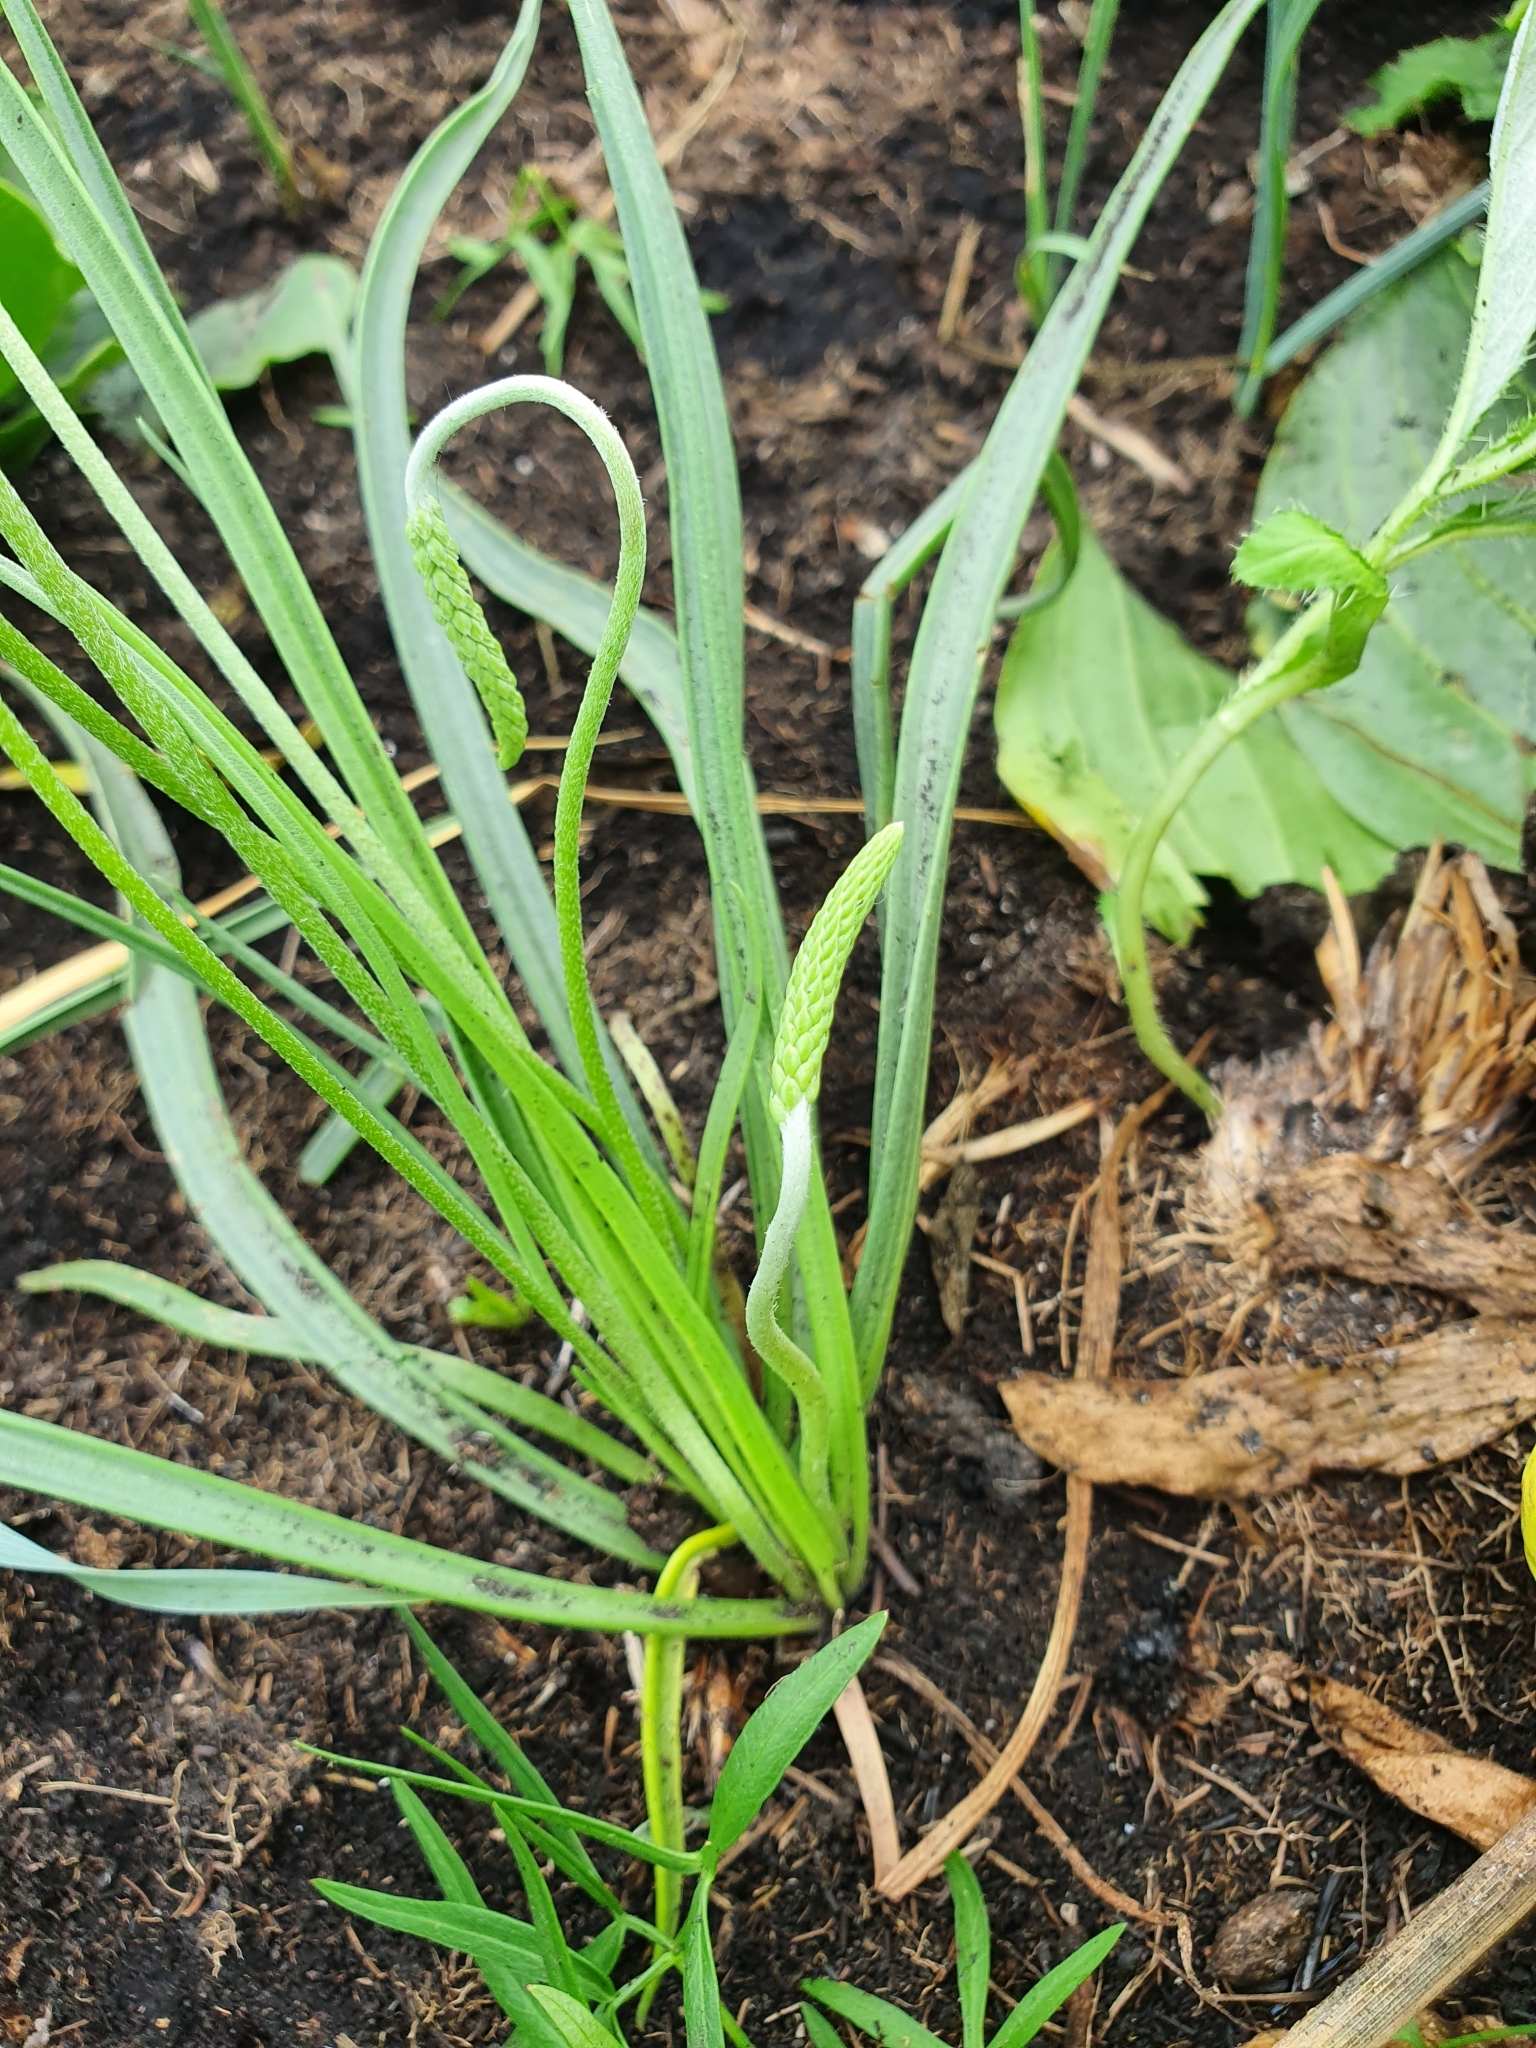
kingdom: Plantae
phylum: Tracheophyta
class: Magnoliopsida
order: Lamiales
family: Plantaginaceae
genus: Plantago
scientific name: Plantago salsa
